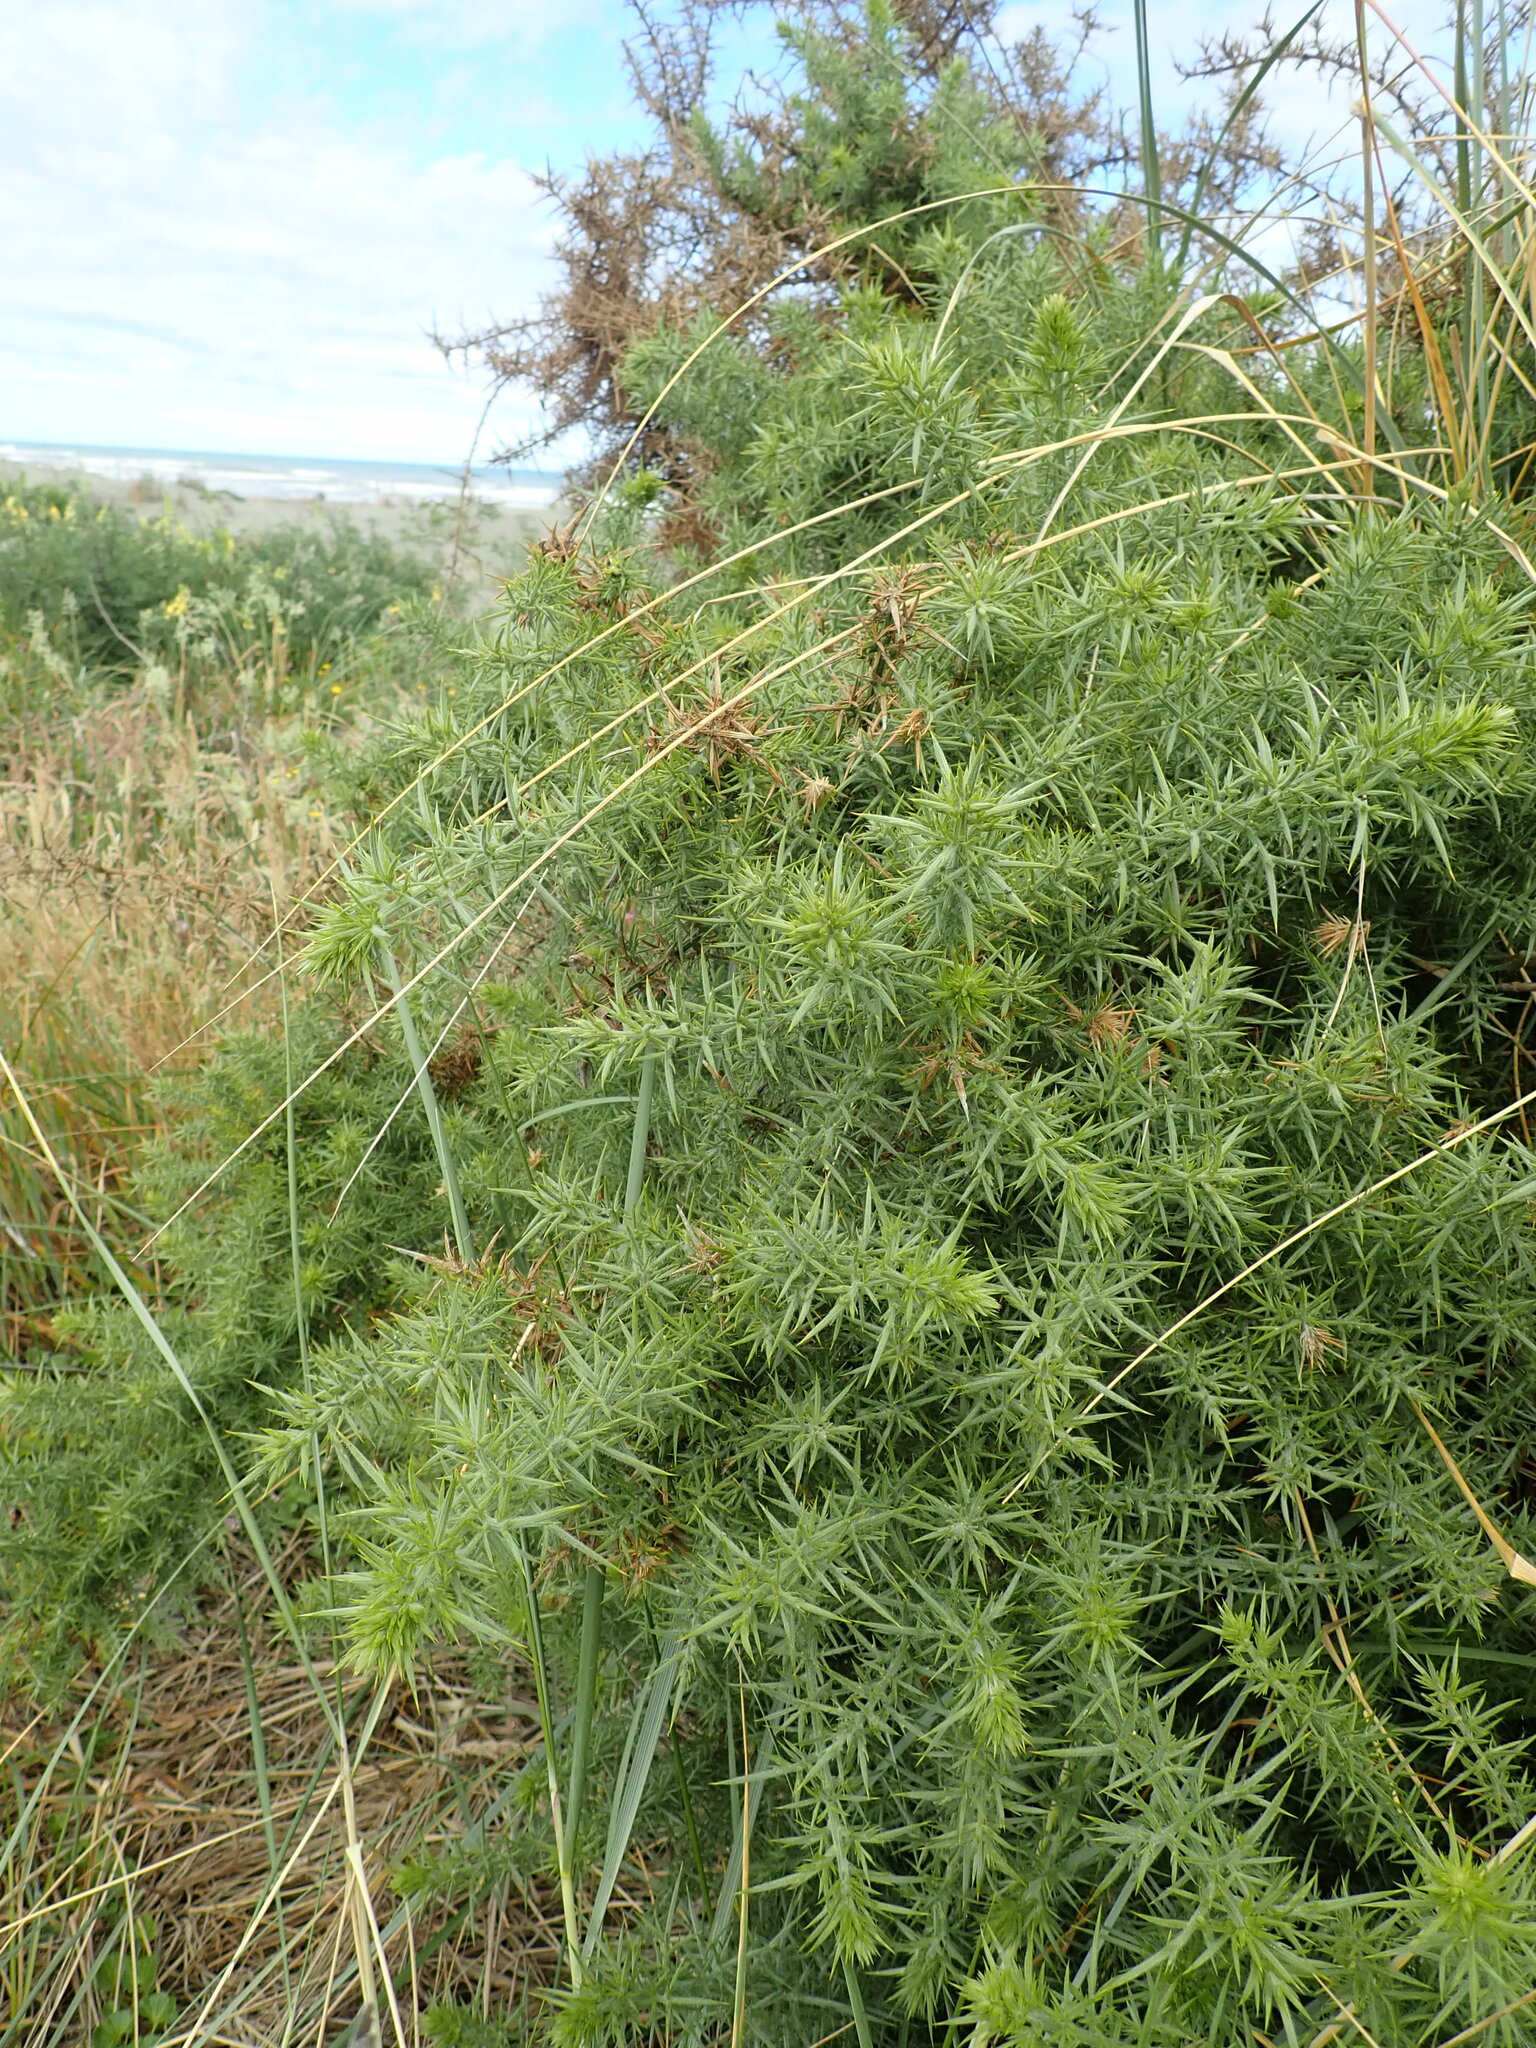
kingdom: Plantae
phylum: Tracheophyta
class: Magnoliopsida
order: Fabales
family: Fabaceae
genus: Ulex
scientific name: Ulex europaeus
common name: Common gorse
